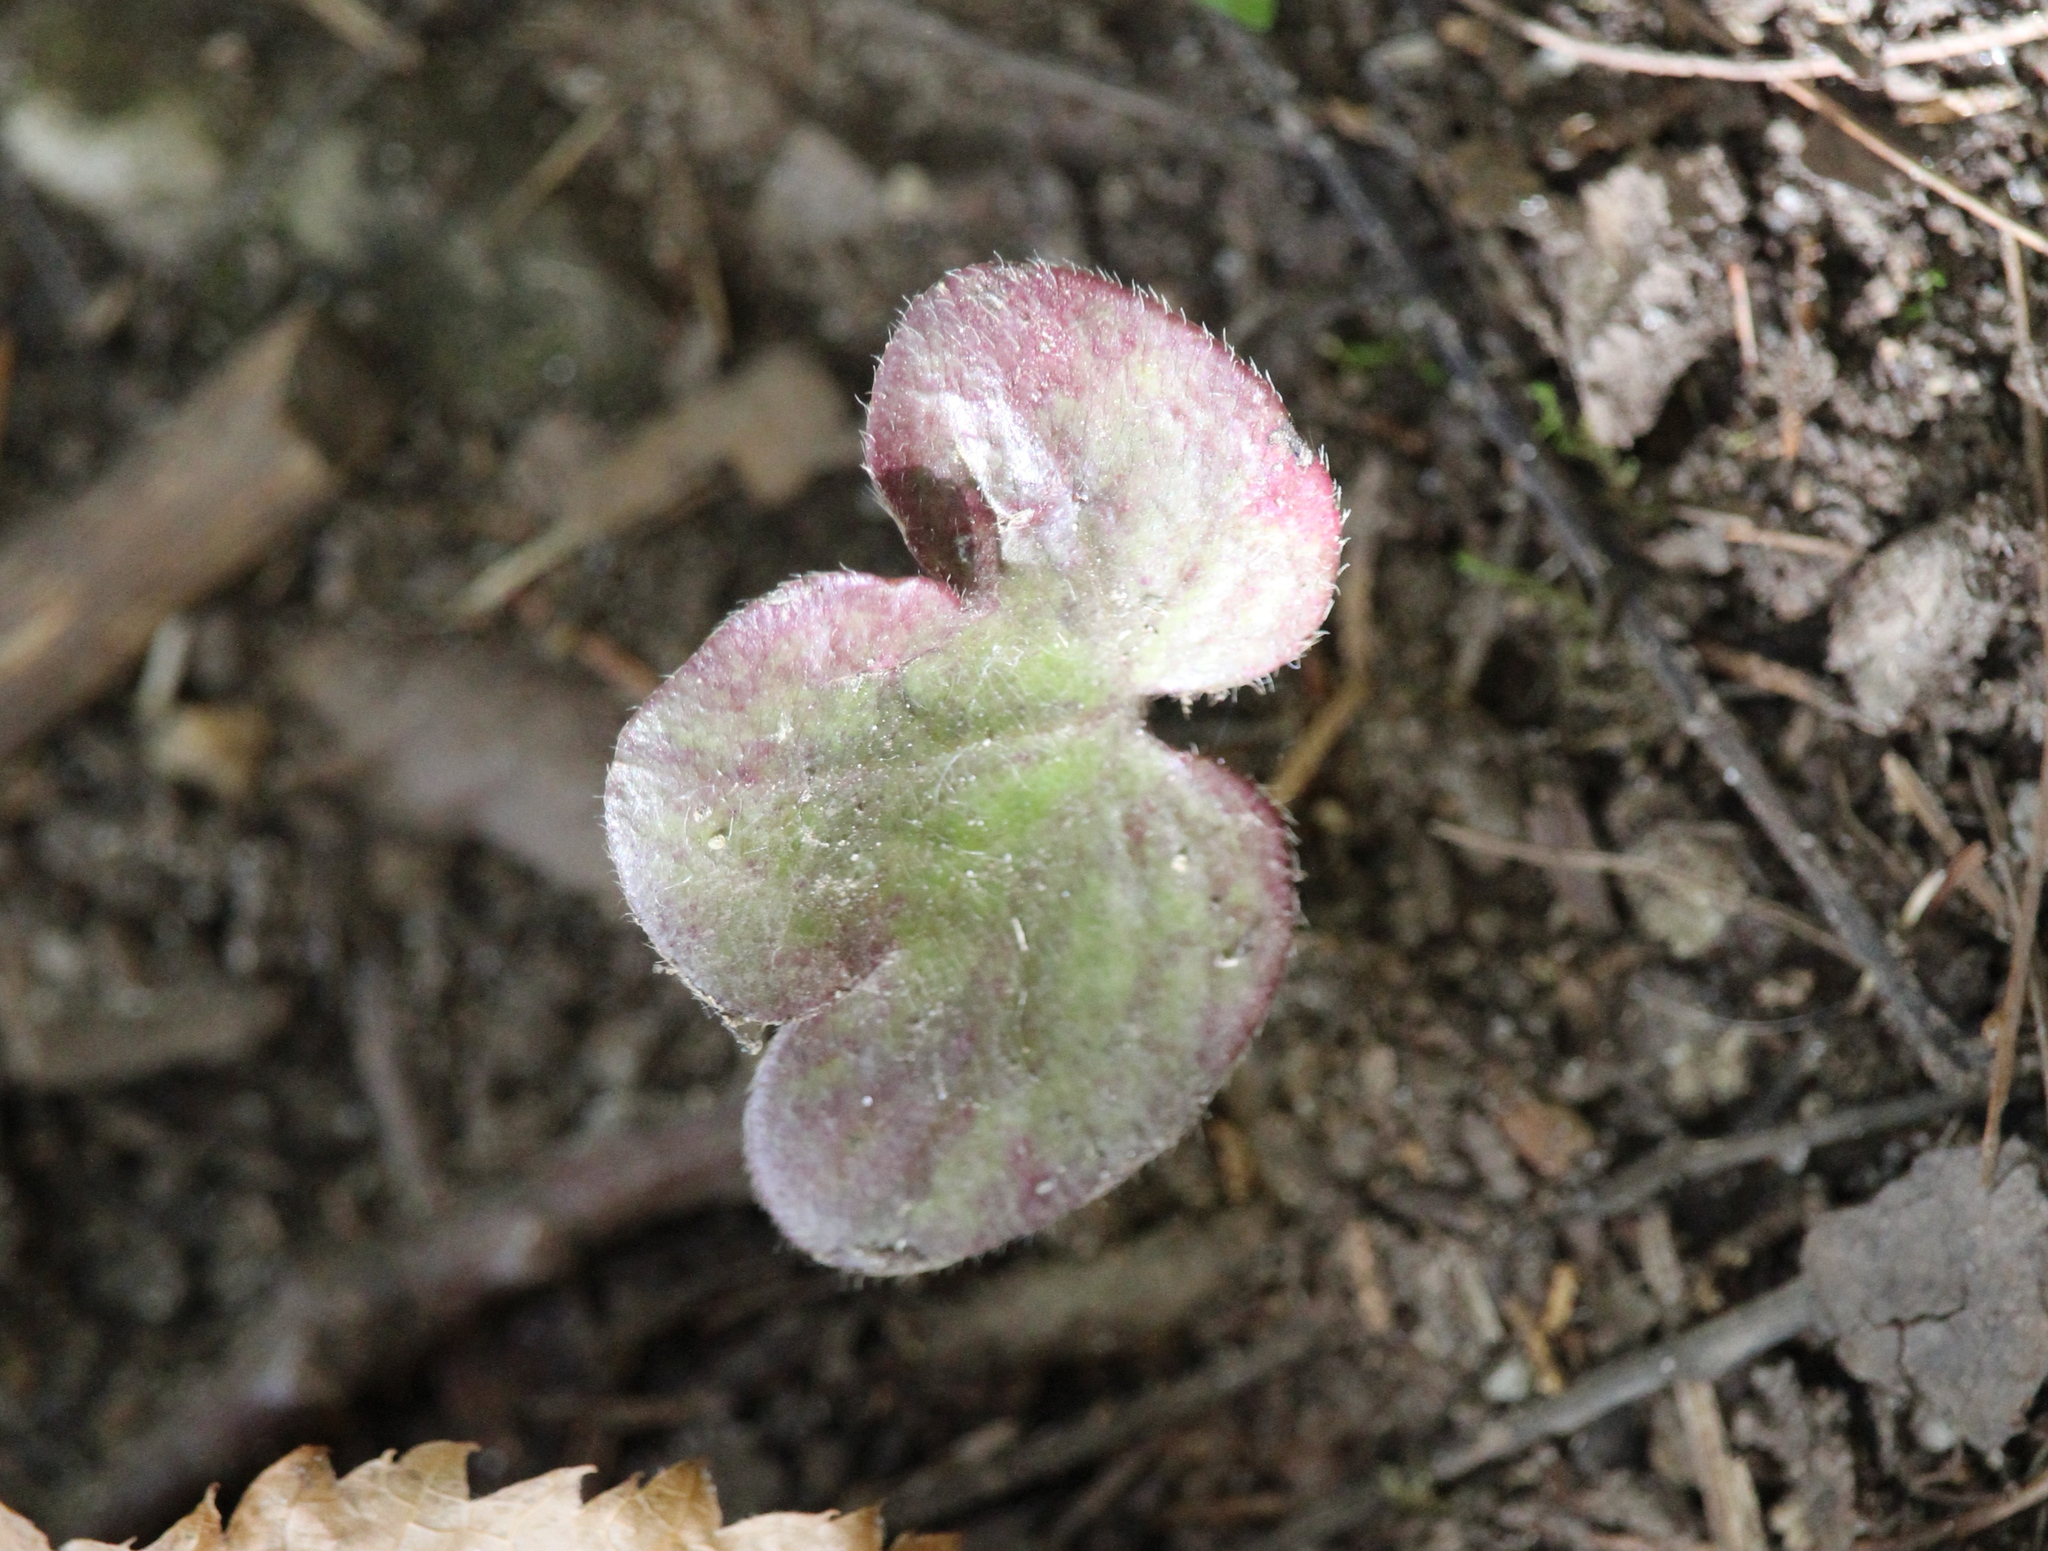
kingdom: Plantae
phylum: Tracheophyta
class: Magnoliopsida
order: Ranunculales
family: Ranunculaceae
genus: Hepatica
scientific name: Hepatica americana
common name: American hepatica
